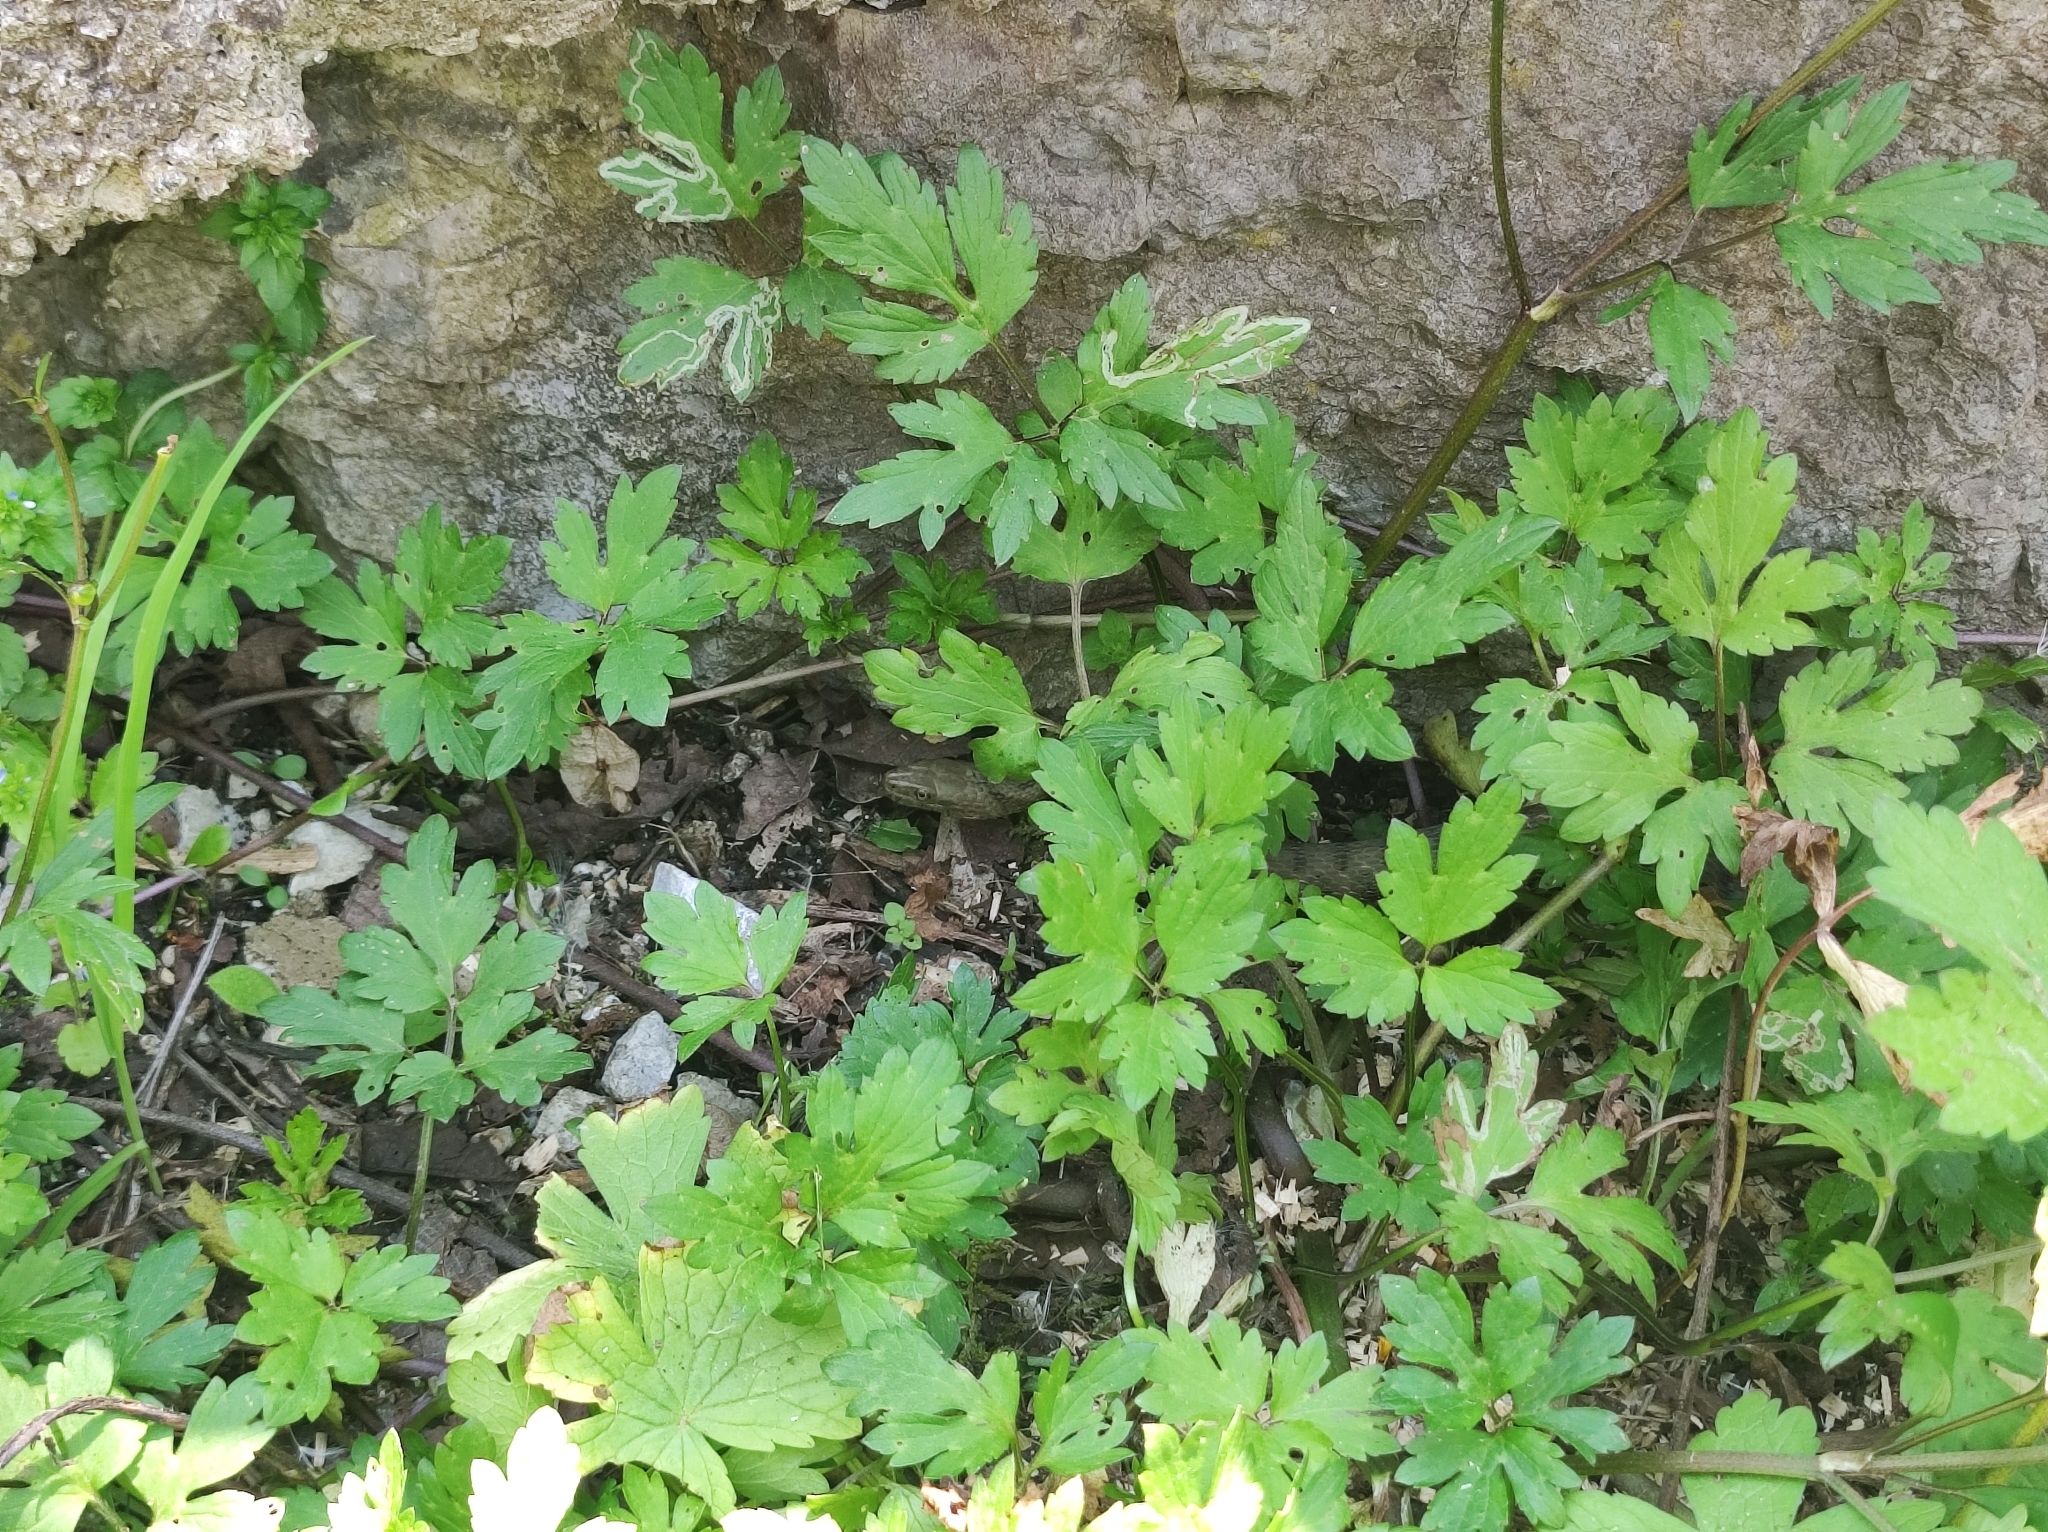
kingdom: Animalia
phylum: Chordata
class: Squamata
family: Colubridae
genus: Natrix
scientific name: Natrix tessellata
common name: Dice snake
